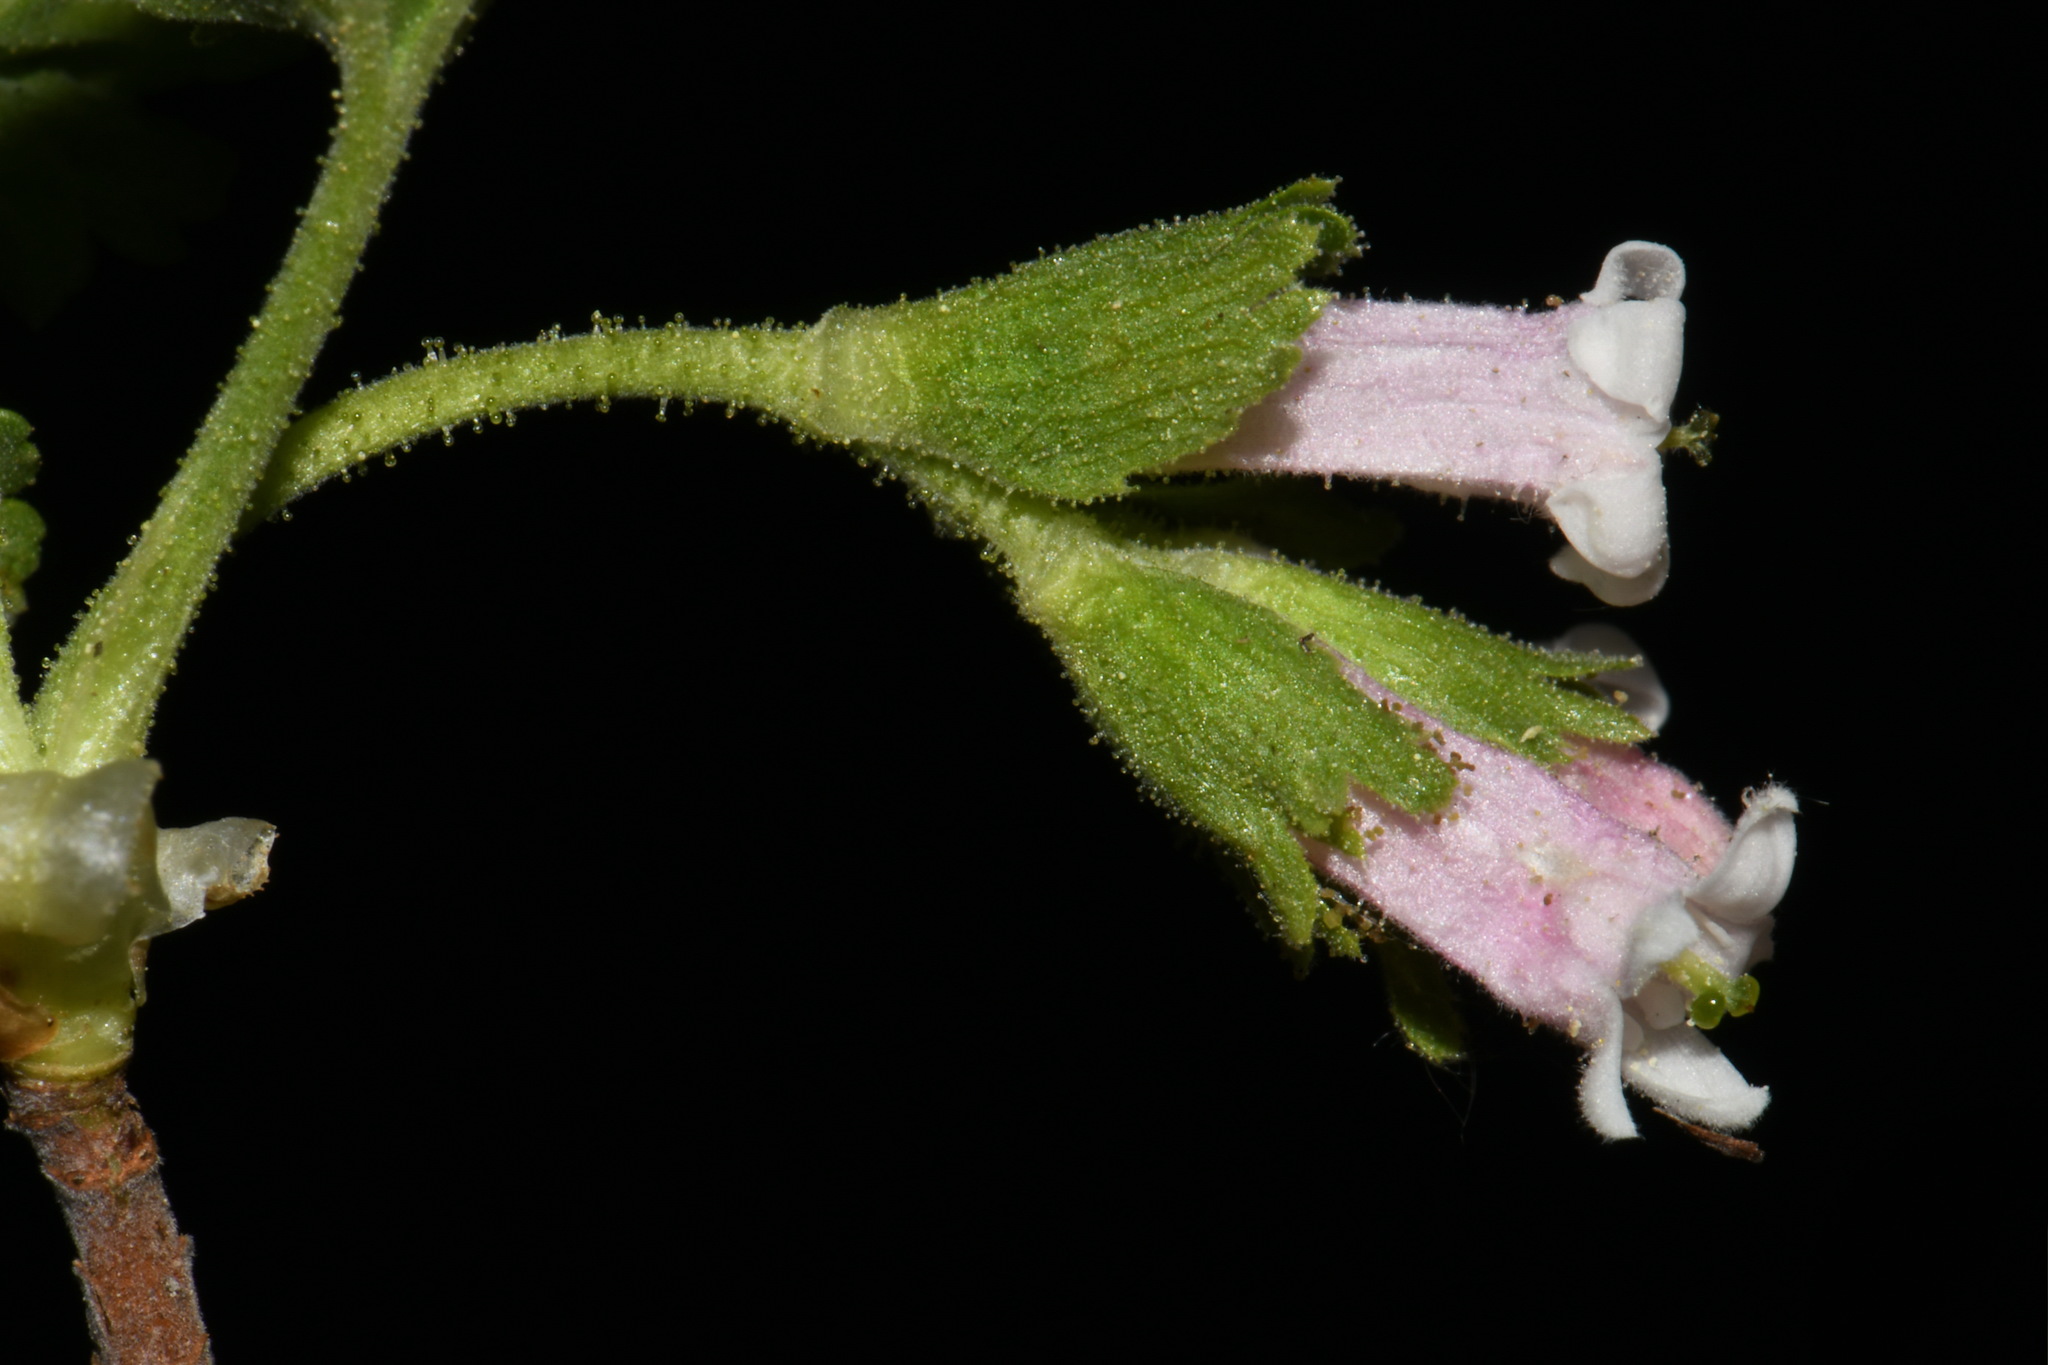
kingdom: Plantae
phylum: Tracheophyta
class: Magnoliopsida
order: Saxifragales
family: Grossulariaceae
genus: Ribes
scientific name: Ribes cereum
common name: Wax currant
